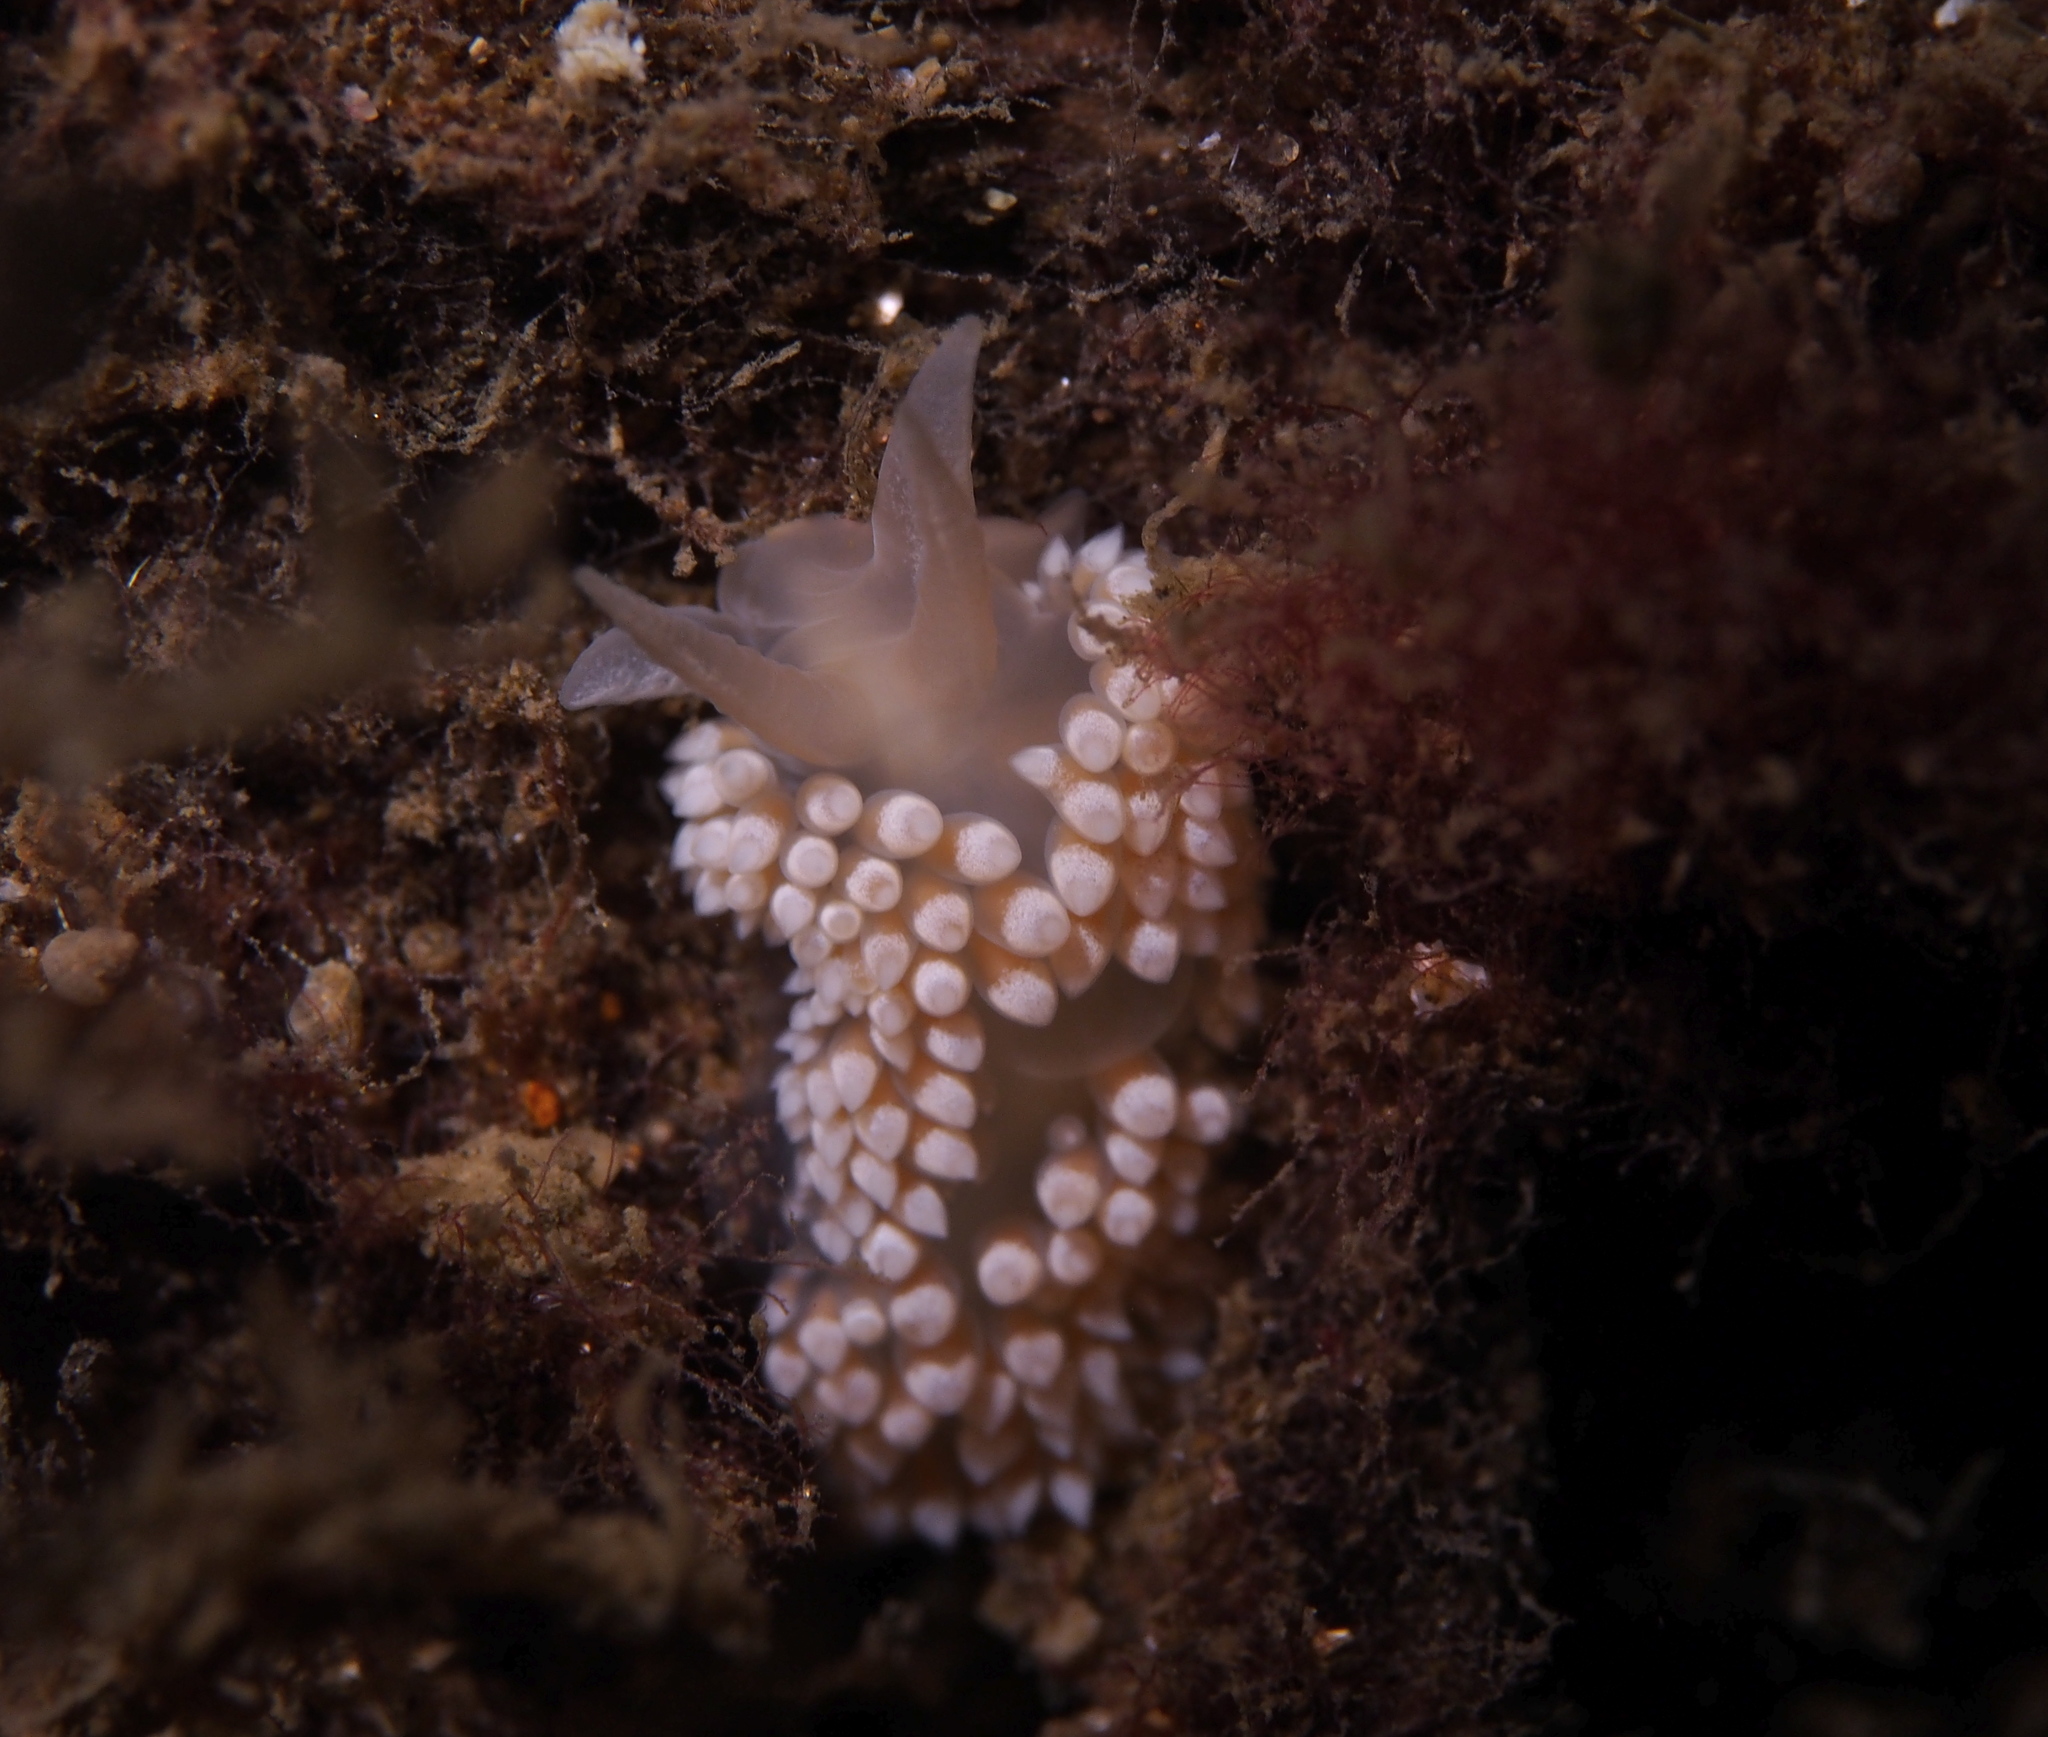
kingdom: Animalia
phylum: Mollusca
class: Gastropoda
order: Nudibranchia
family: Coryphellidae
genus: Coryphella
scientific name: Coryphella verrucosa
